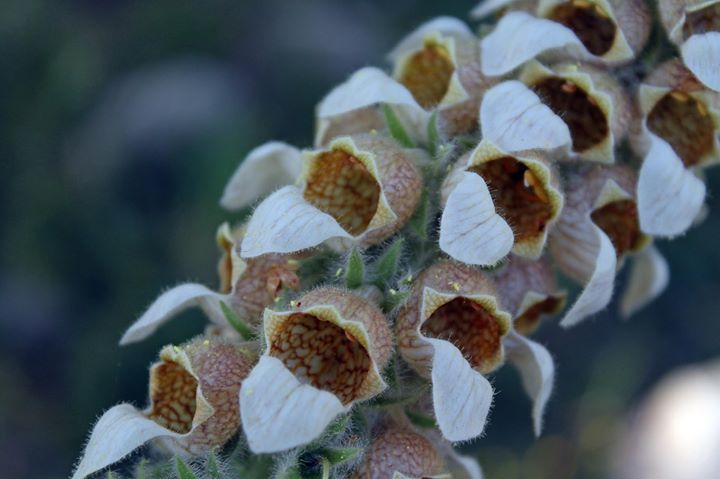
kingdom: Plantae
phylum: Tracheophyta
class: Magnoliopsida
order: Lamiales
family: Plantaginaceae
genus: Digitalis
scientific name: Digitalis lanata
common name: Grecian foxglove
